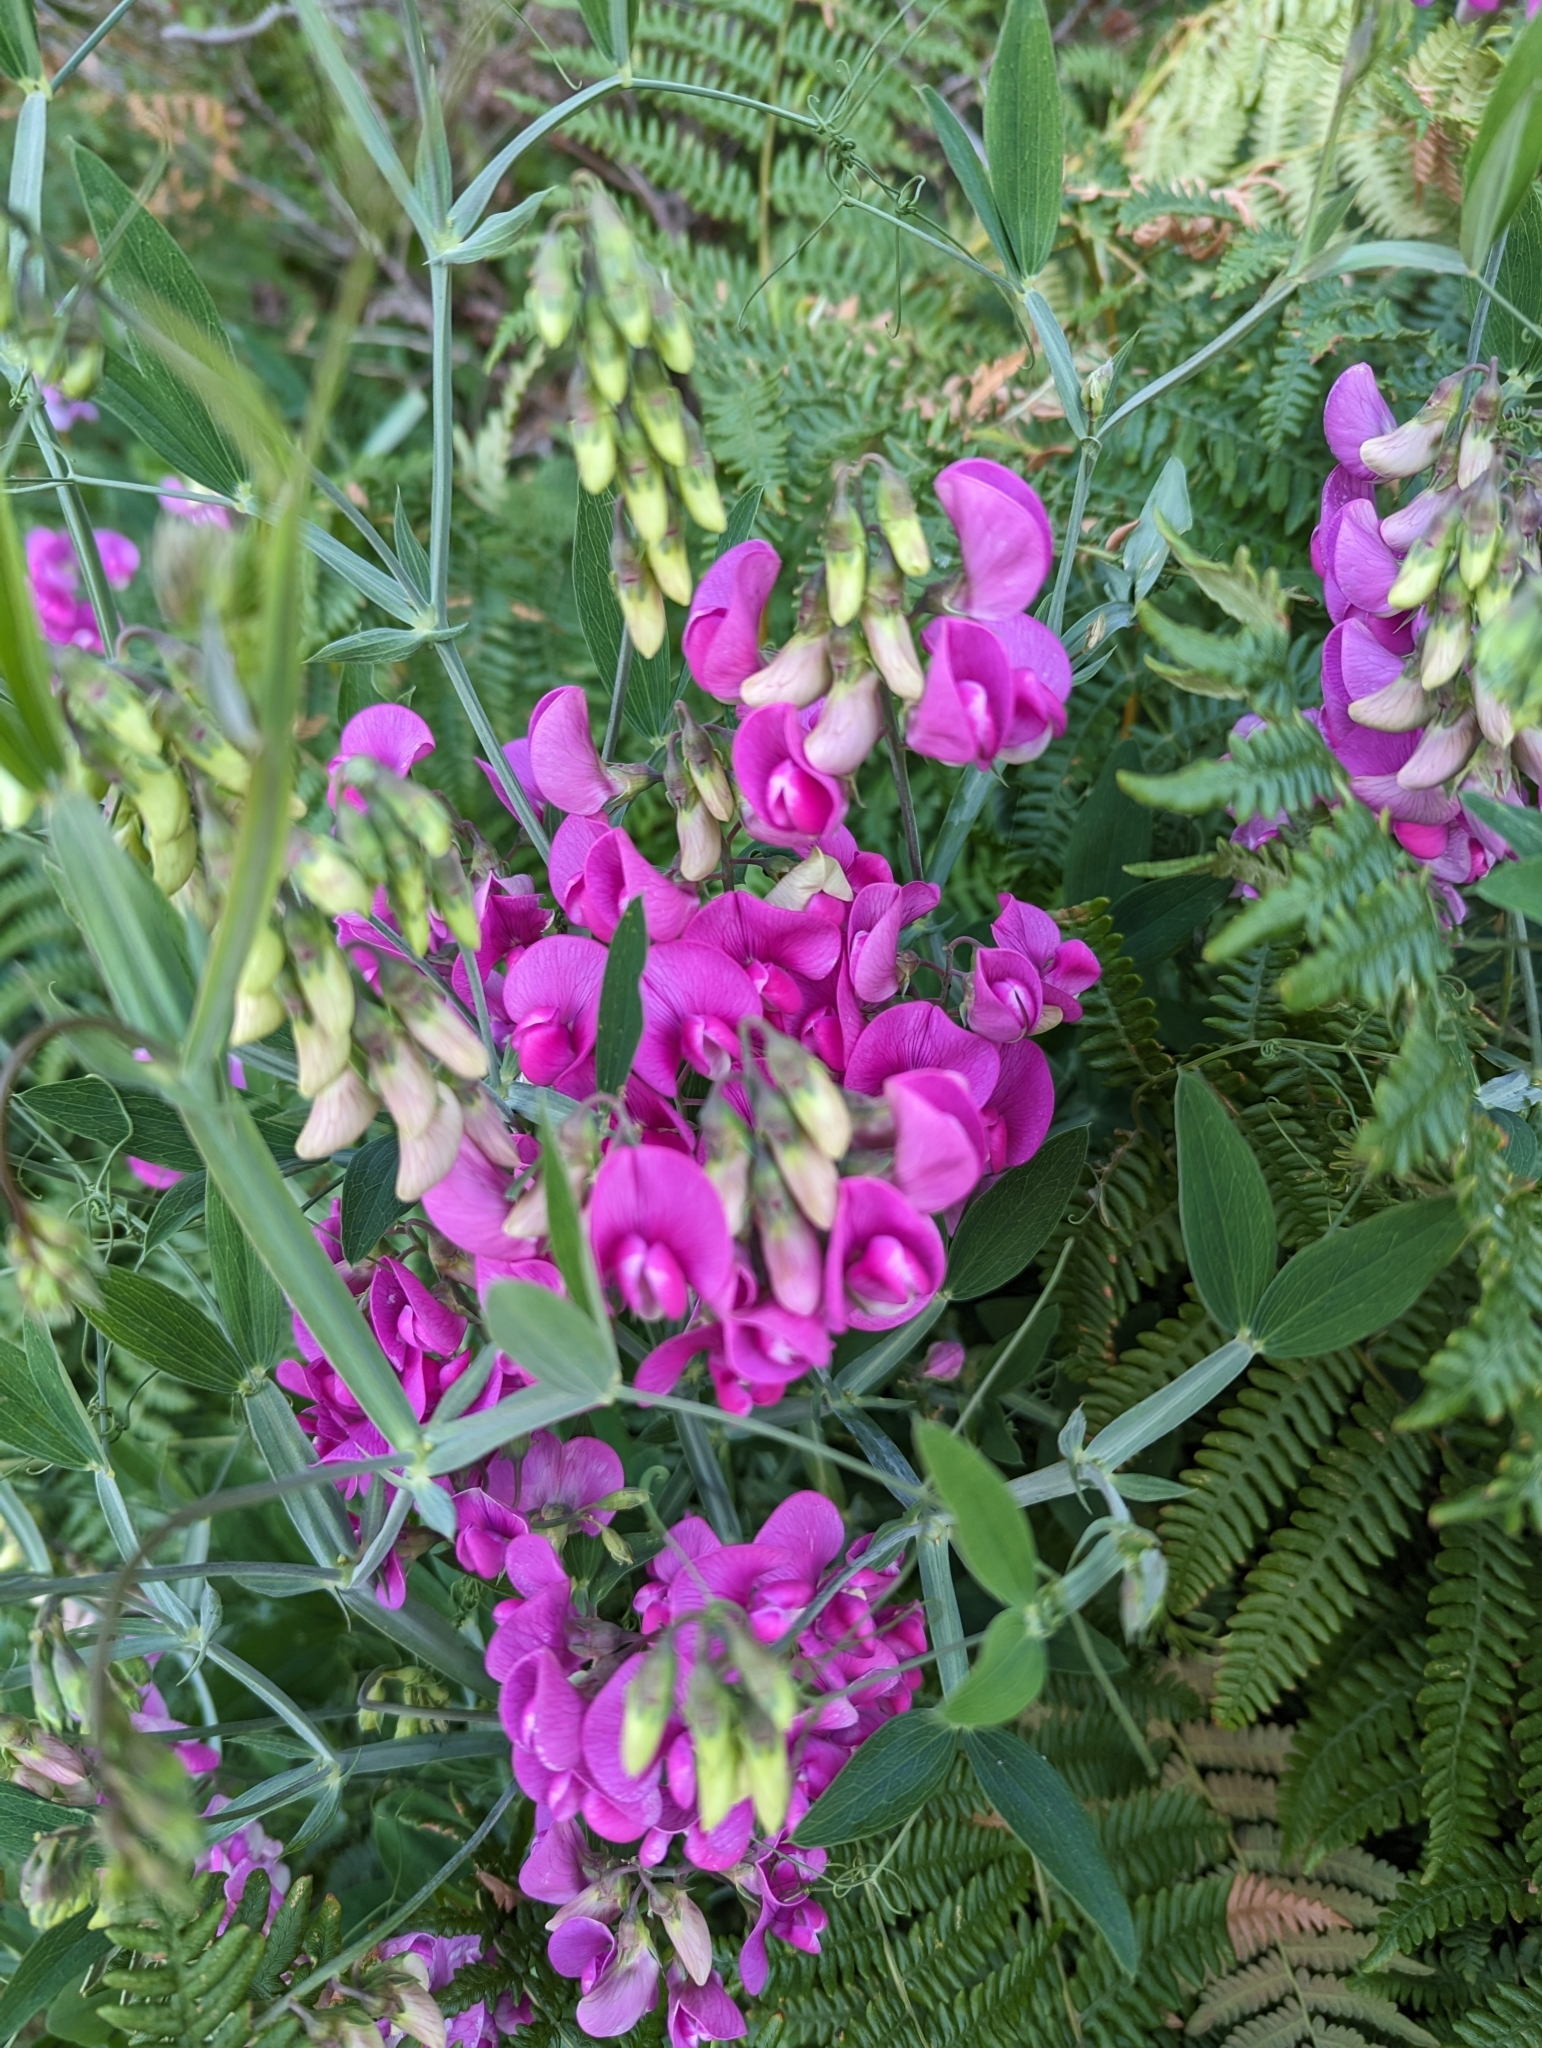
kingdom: Plantae
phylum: Tracheophyta
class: Magnoliopsida
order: Fabales
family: Fabaceae
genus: Lathyrus
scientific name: Lathyrus latifolius
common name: Perennial pea
